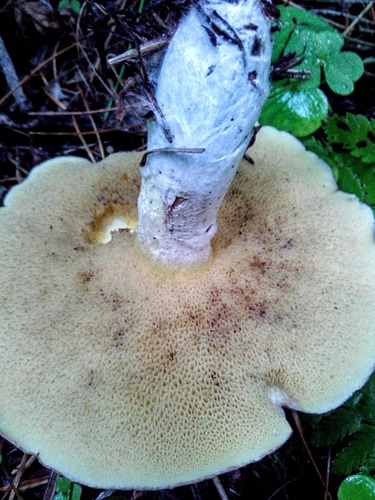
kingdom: Fungi
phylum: Basidiomycota
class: Agaricomycetes
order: Boletales
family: Suillaceae
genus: Suillus
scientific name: Suillus placidus
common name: Slippery white bolete
